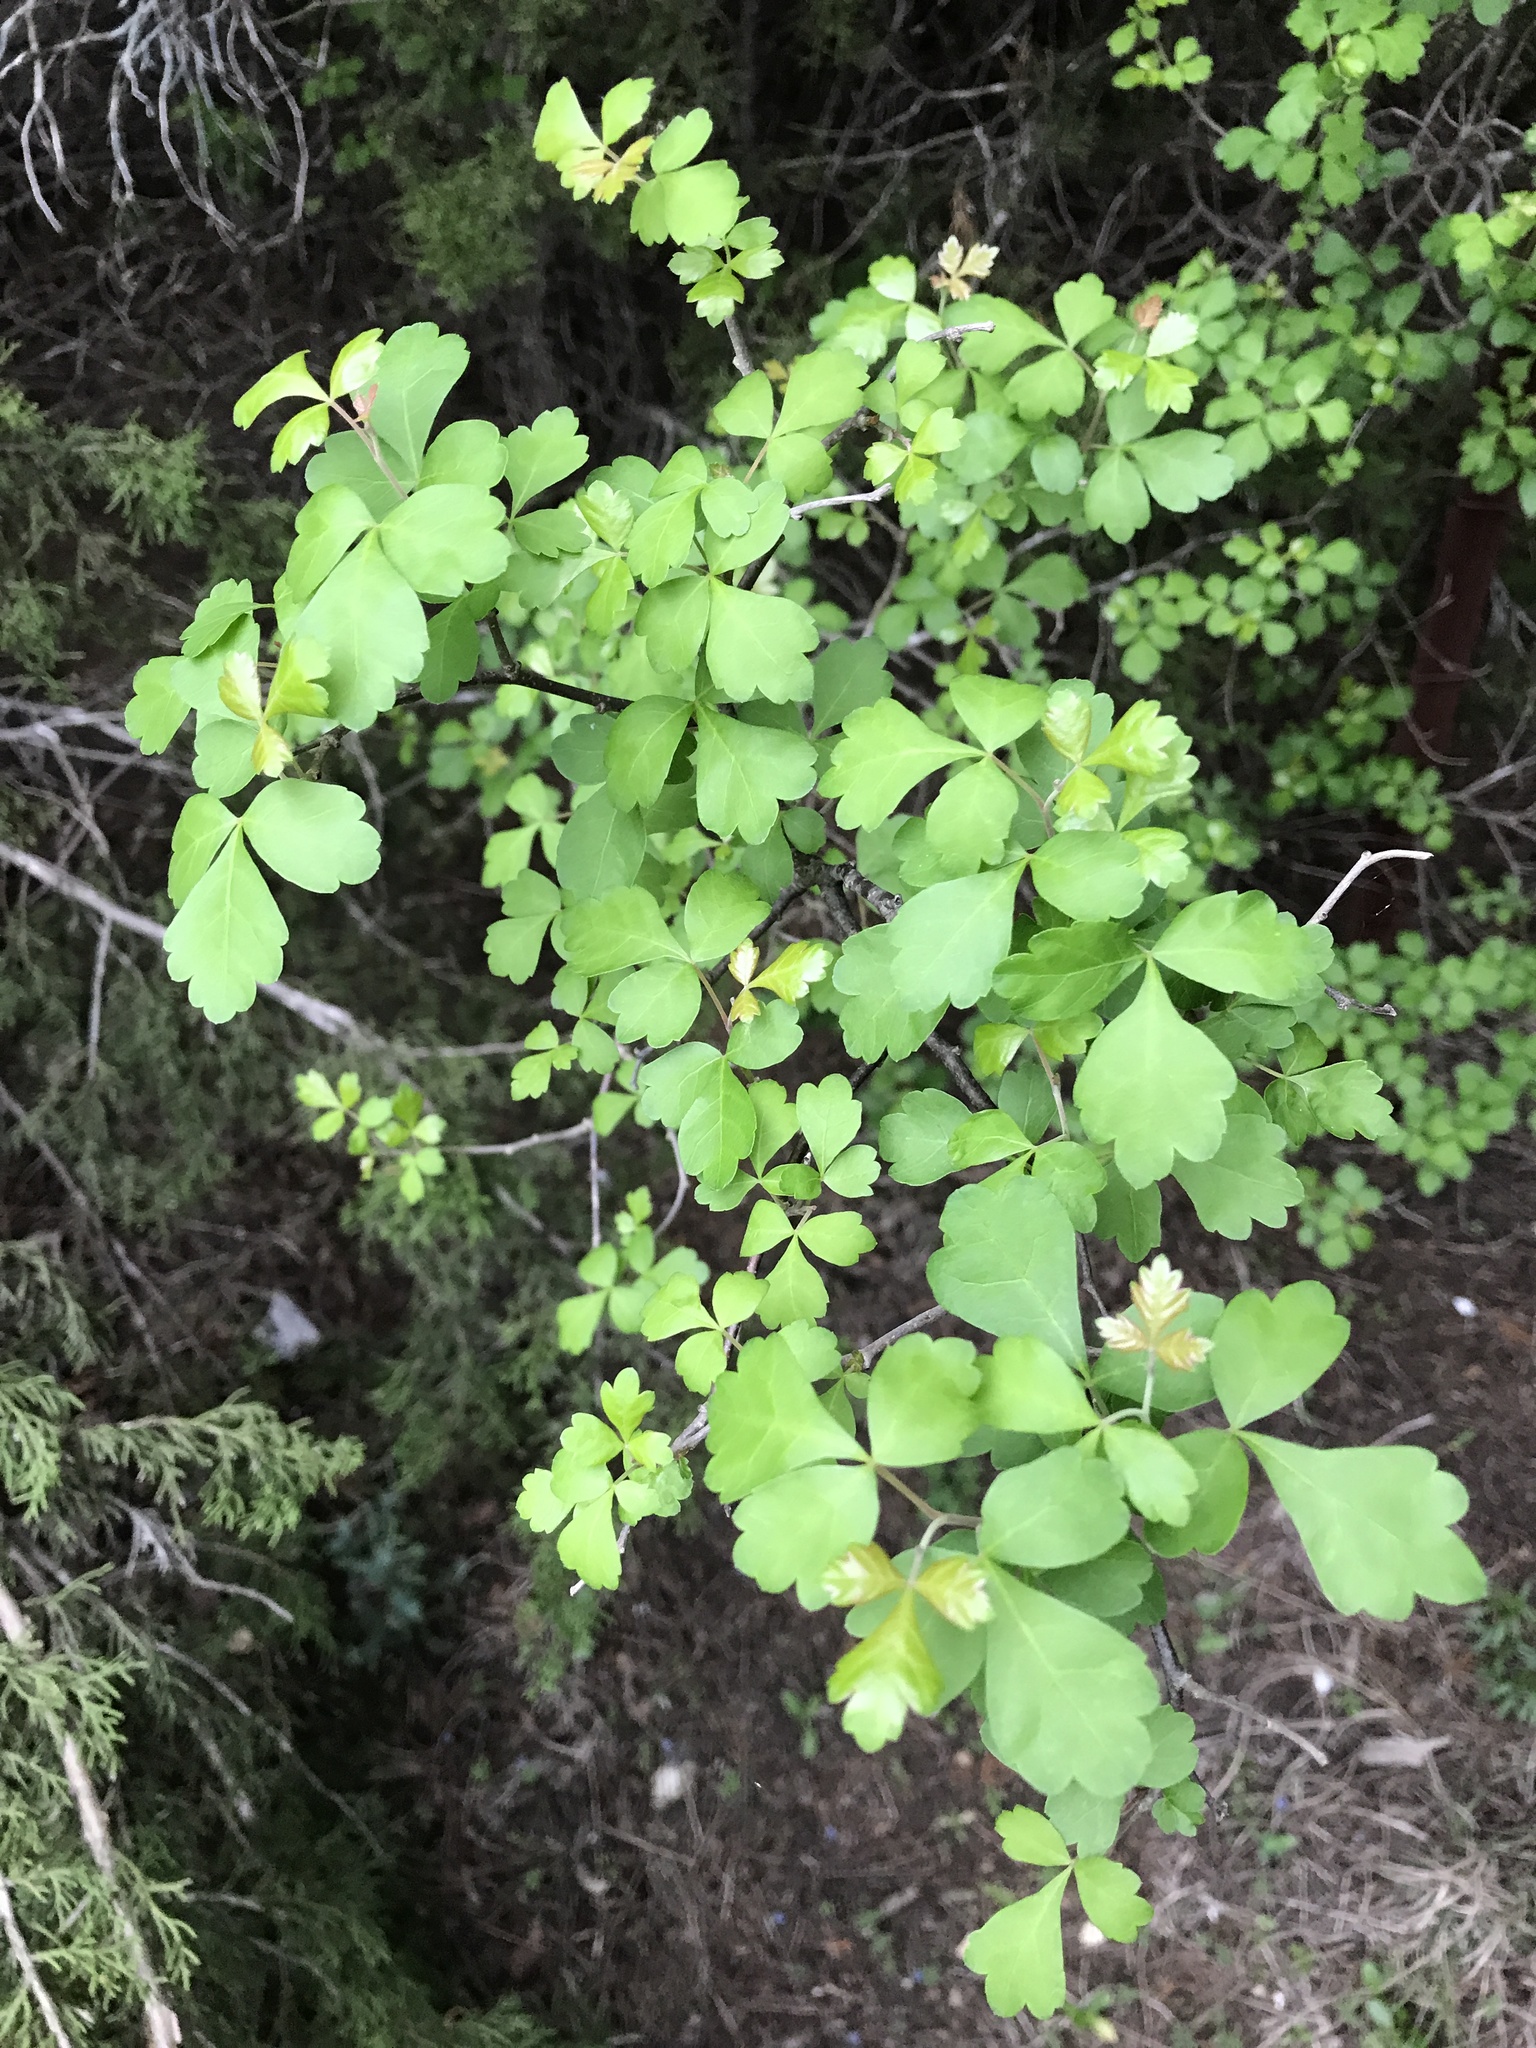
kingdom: Plantae
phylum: Tracheophyta
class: Magnoliopsida
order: Sapindales
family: Anacardiaceae
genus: Rhus
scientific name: Rhus aromatica
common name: Aromatic sumac
